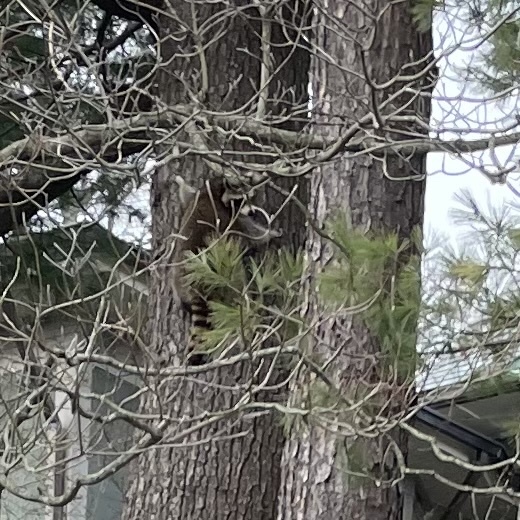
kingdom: Animalia
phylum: Chordata
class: Mammalia
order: Carnivora
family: Procyonidae
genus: Procyon
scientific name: Procyon lotor
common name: Raccoon
